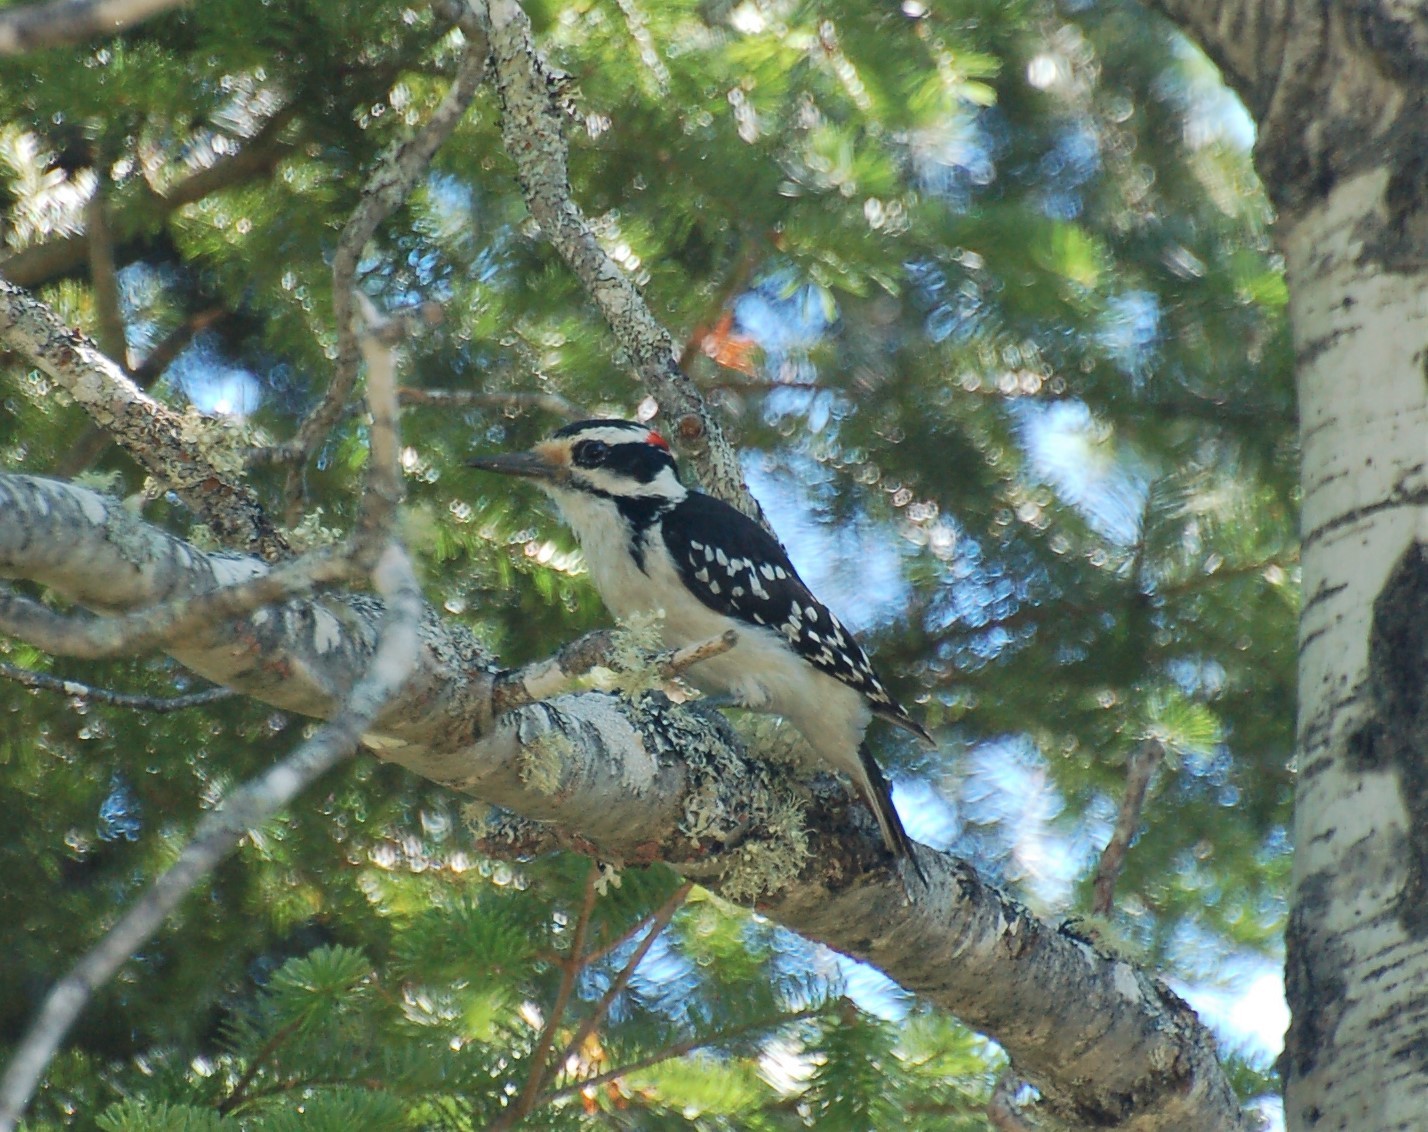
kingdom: Animalia
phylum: Chordata
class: Aves
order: Piciformes
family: Picidae
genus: Leuconotopicus
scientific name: Leuconotopicus villosus
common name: Hairy woodpecker
